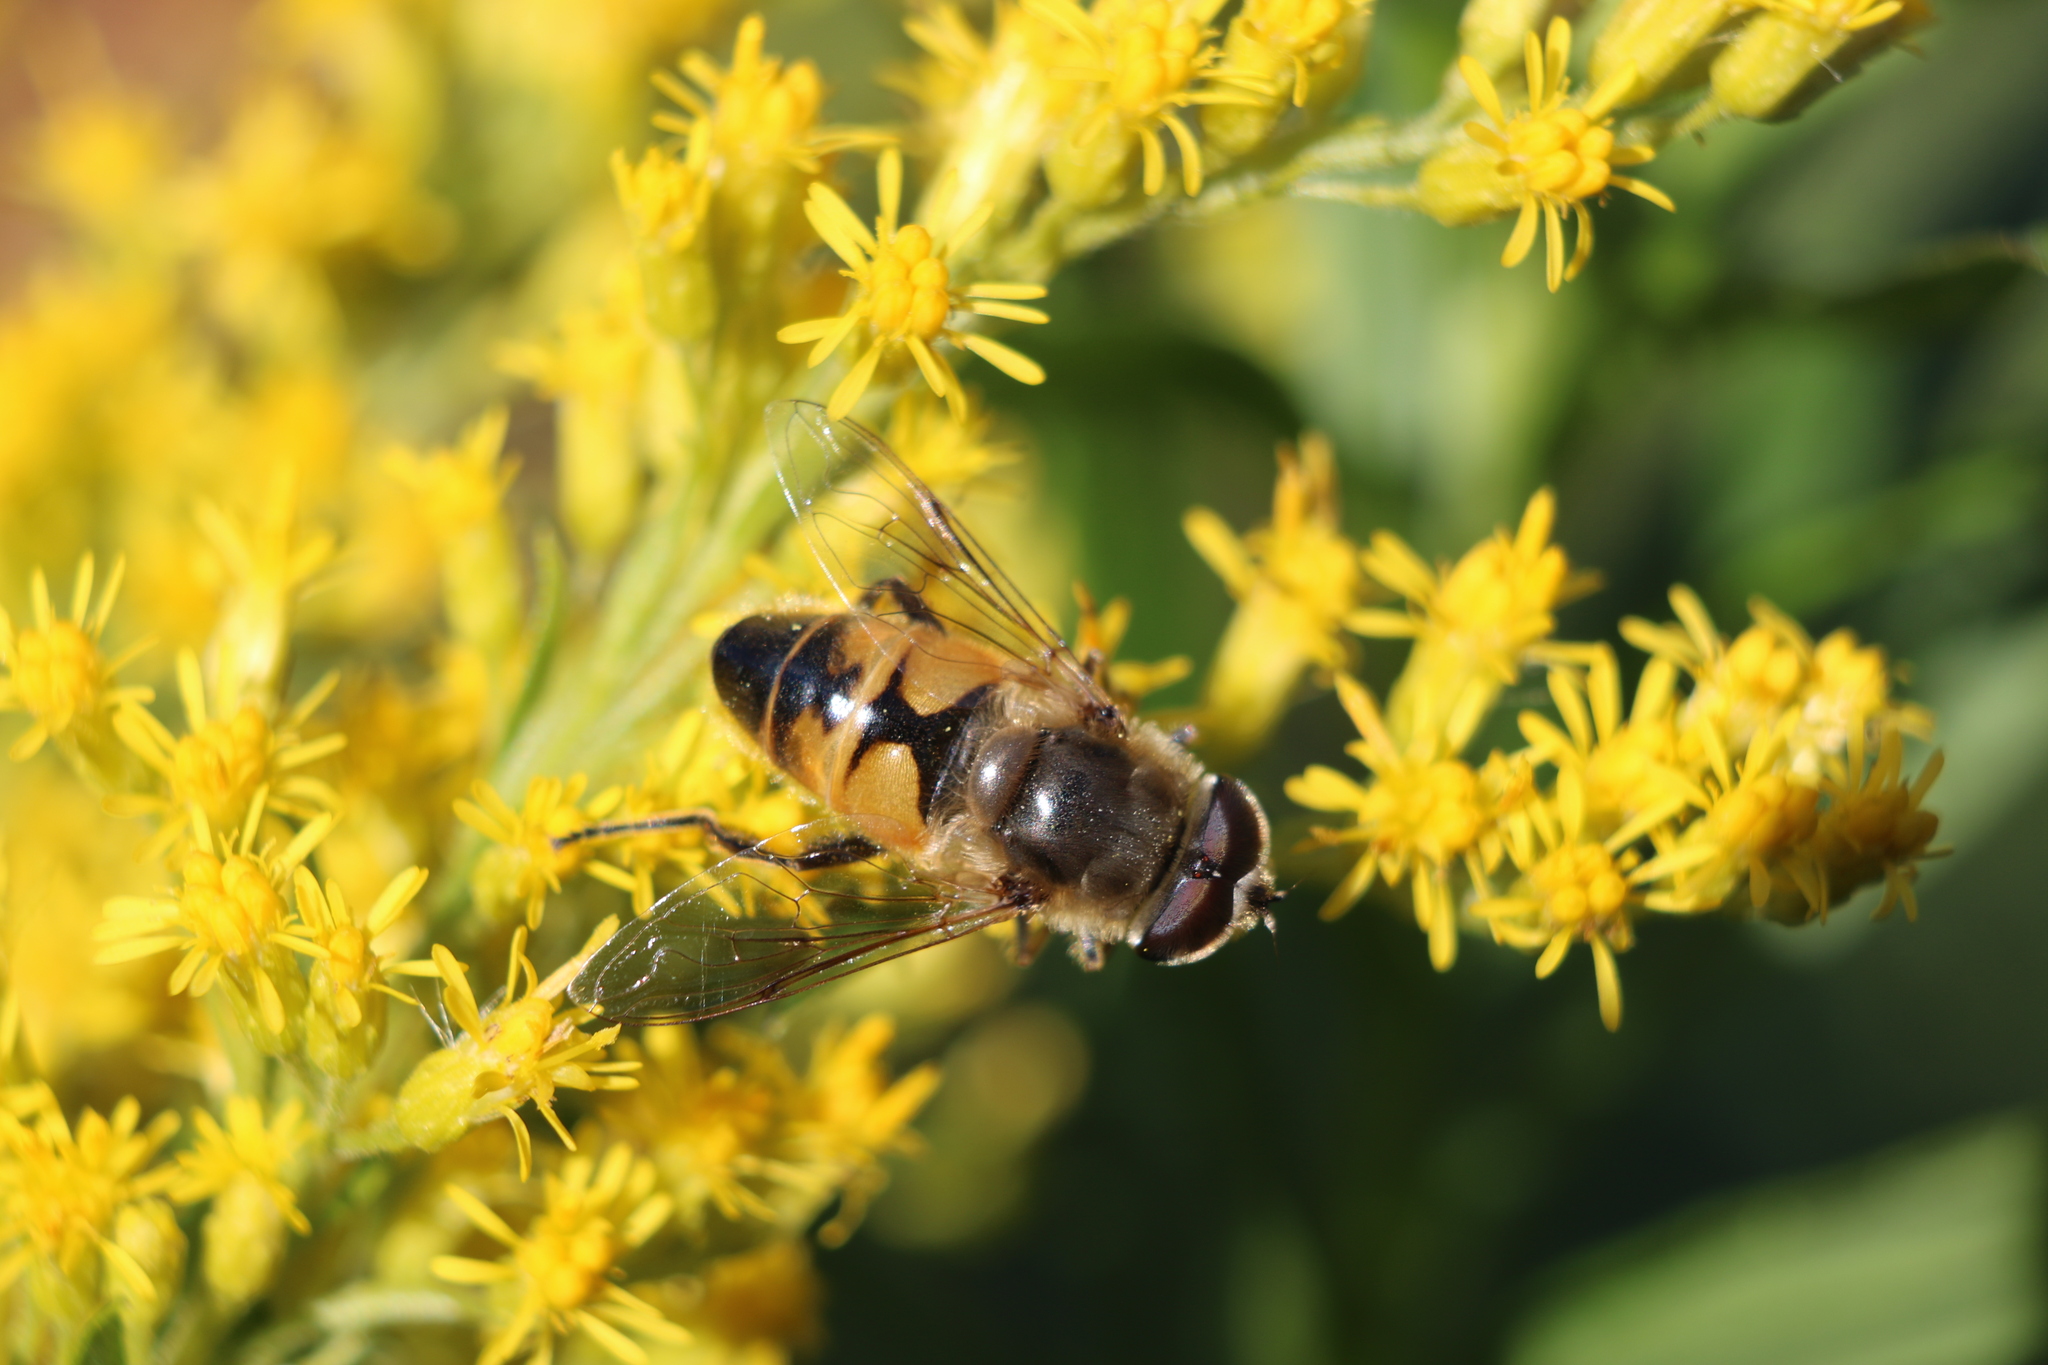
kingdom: Animalia
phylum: Arthropoda
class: Insecta
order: Diptera
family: Syrphidae
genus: Eristalis
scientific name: Eristalis tenax
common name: Drone fly
